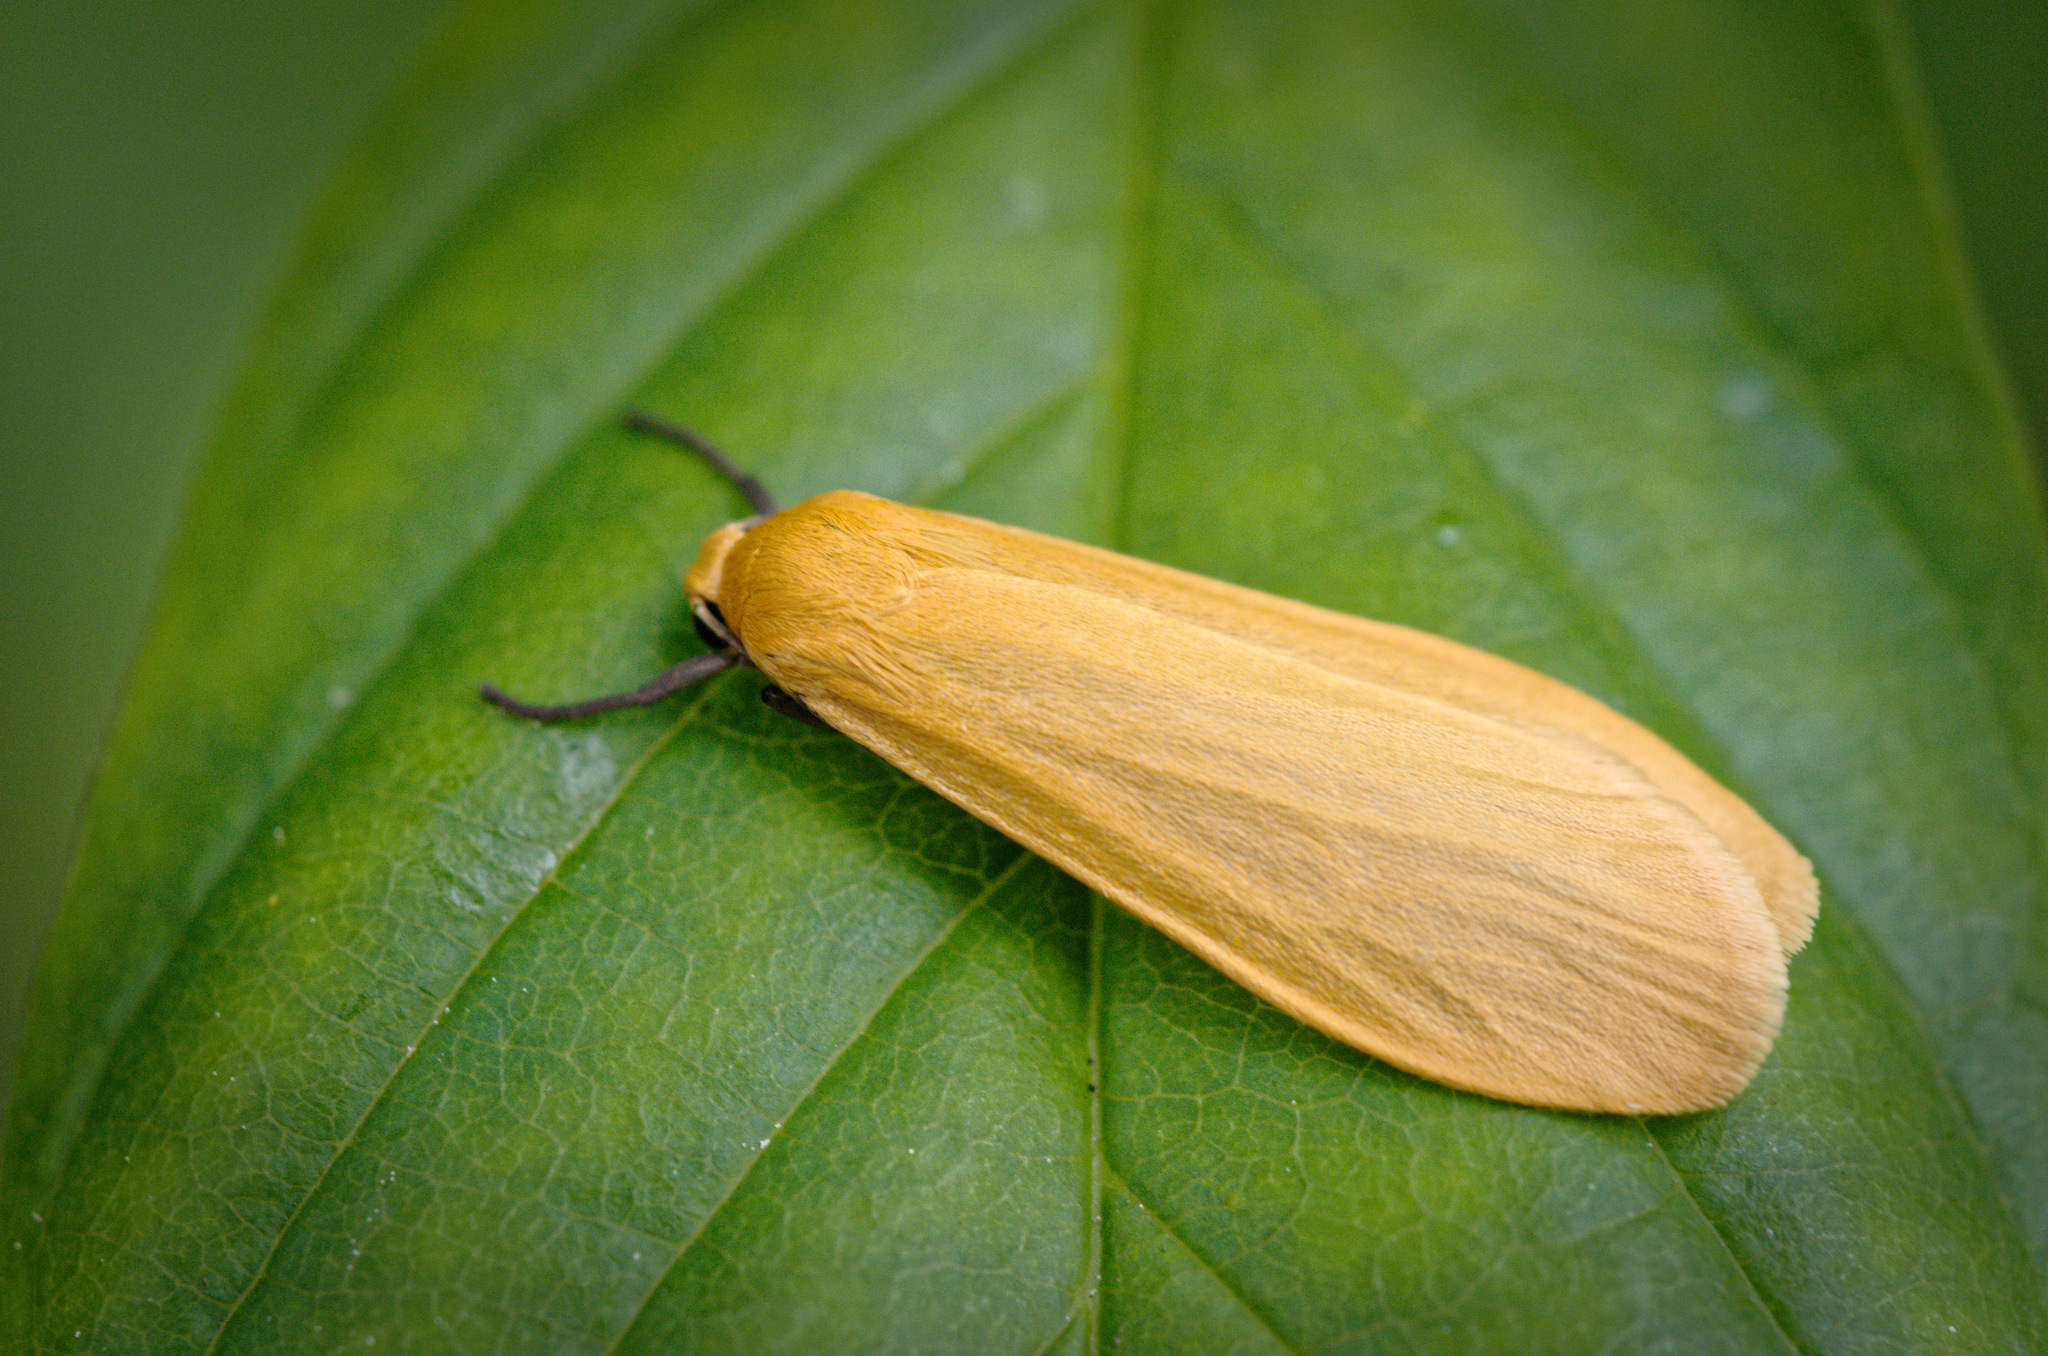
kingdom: Animalia
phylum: Arthropoda
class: Insecta
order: Lepidoptera
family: Erebidae
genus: Wittia
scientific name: Wittia sororcula
